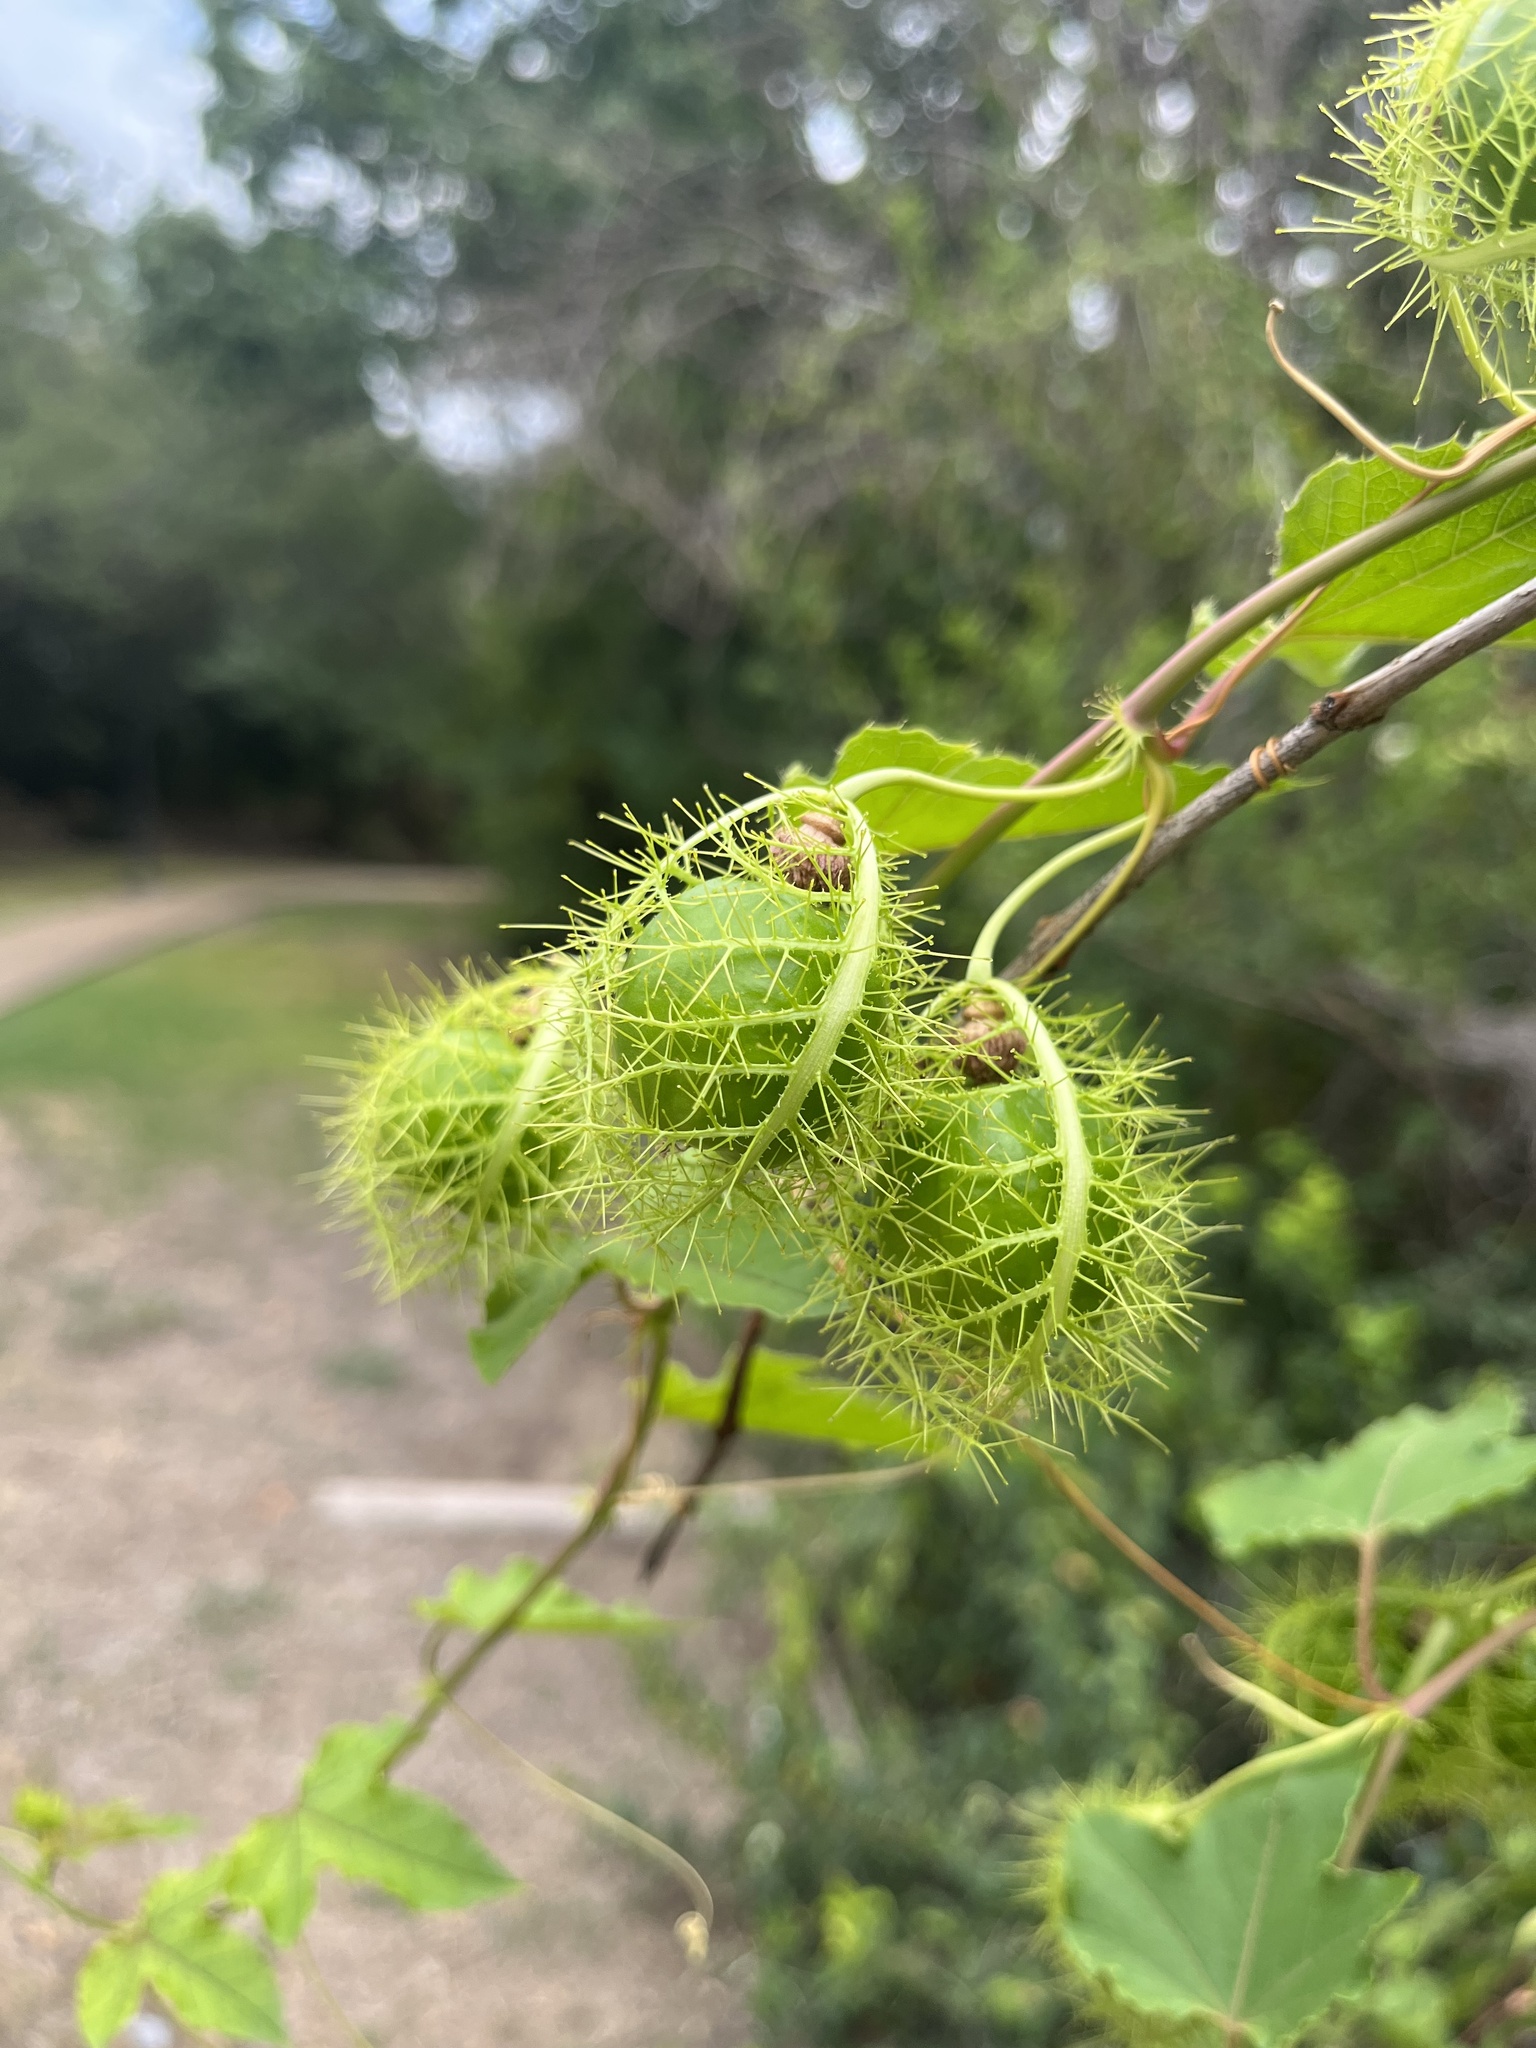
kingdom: Plantae
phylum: Tracheophyta
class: Magnoliopsida
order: Malpighiales
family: Passifloraceae
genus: Passiflora
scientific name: Passiflora
